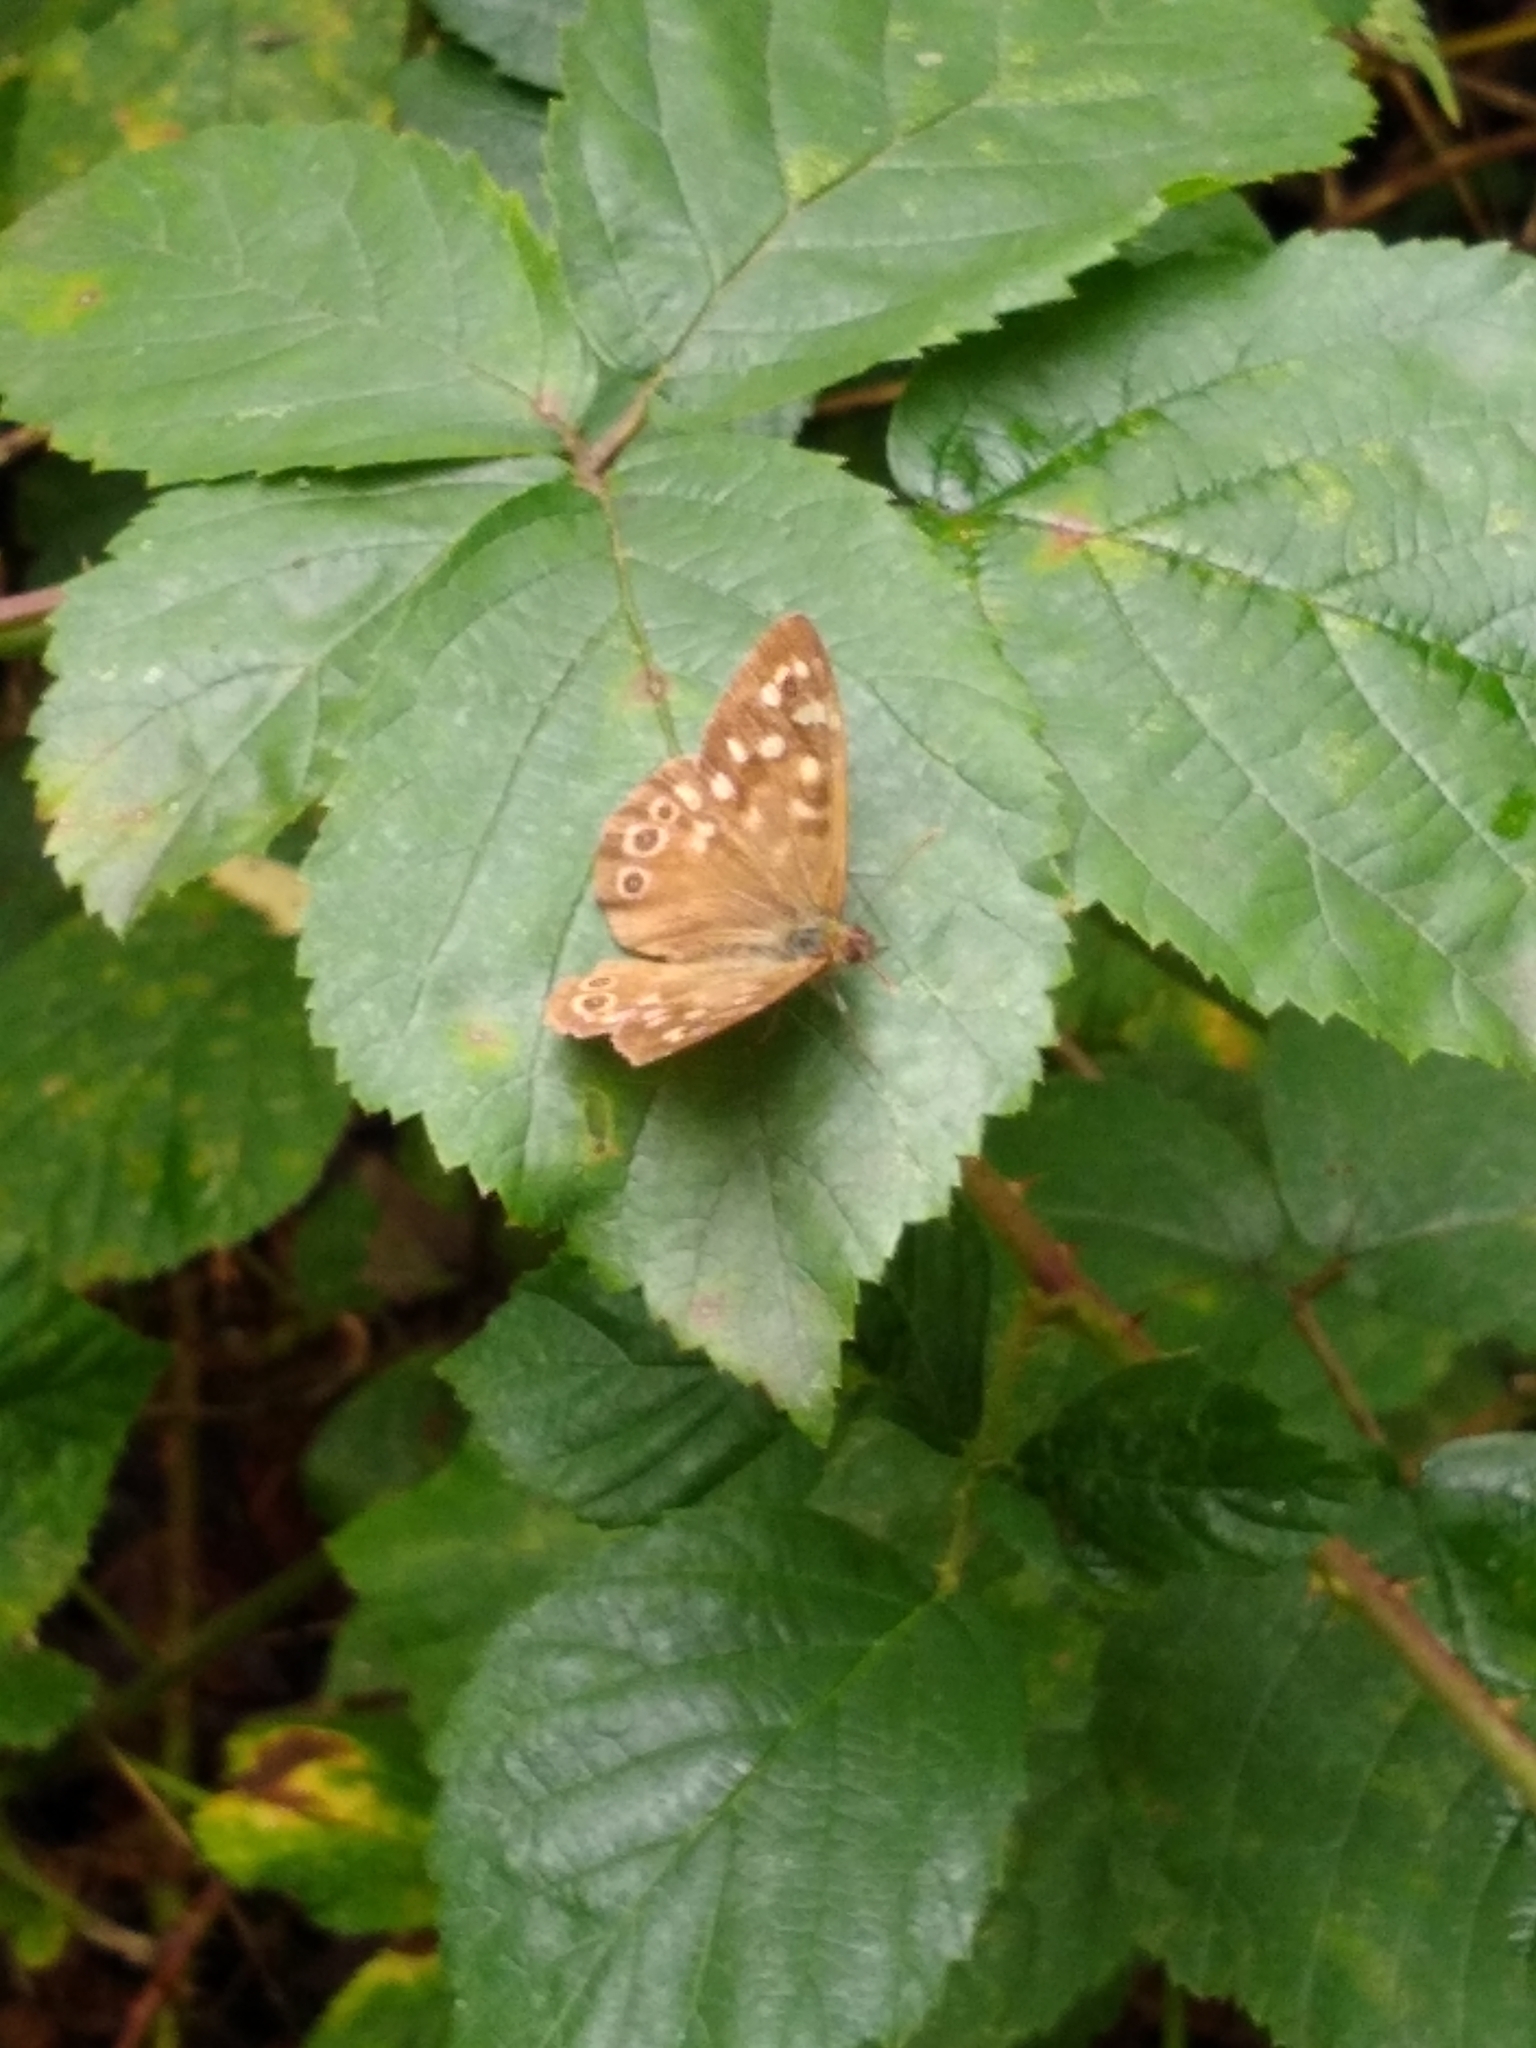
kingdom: Animalia
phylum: Arthropoda
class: Insecta
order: Lepidoptera
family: Nymphalidae
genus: Pararge
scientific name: Pararge aegeria
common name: Speckled wood
